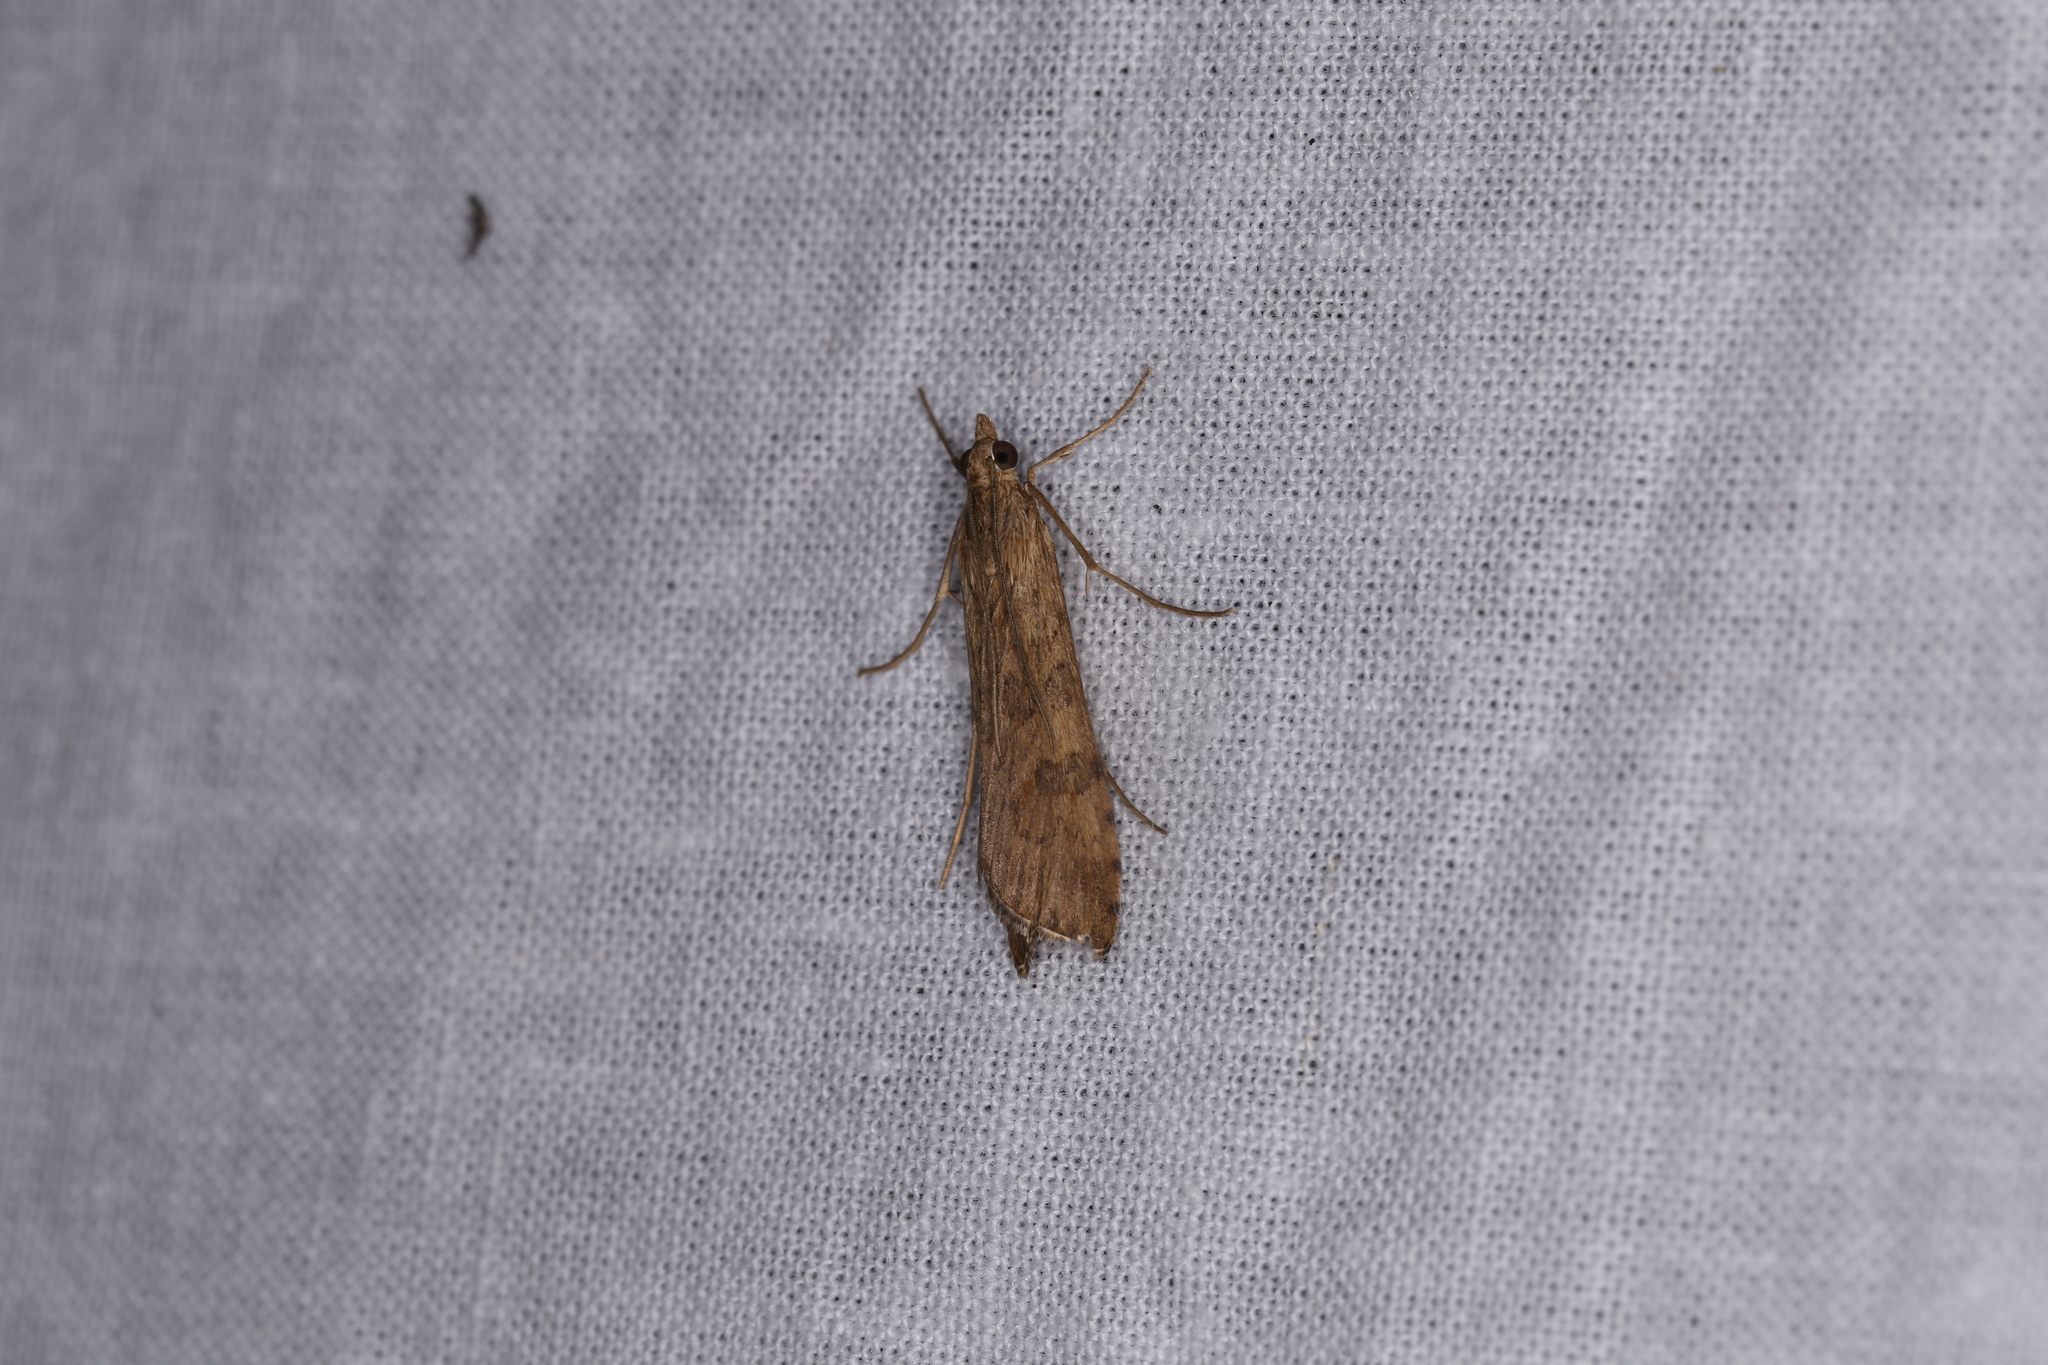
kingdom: Animalia
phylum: Arthropoda
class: Insecta
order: Lepidoptera
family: Crambidae
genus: Nomophila
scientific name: Nomophila noctuella
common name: Rush veneer
